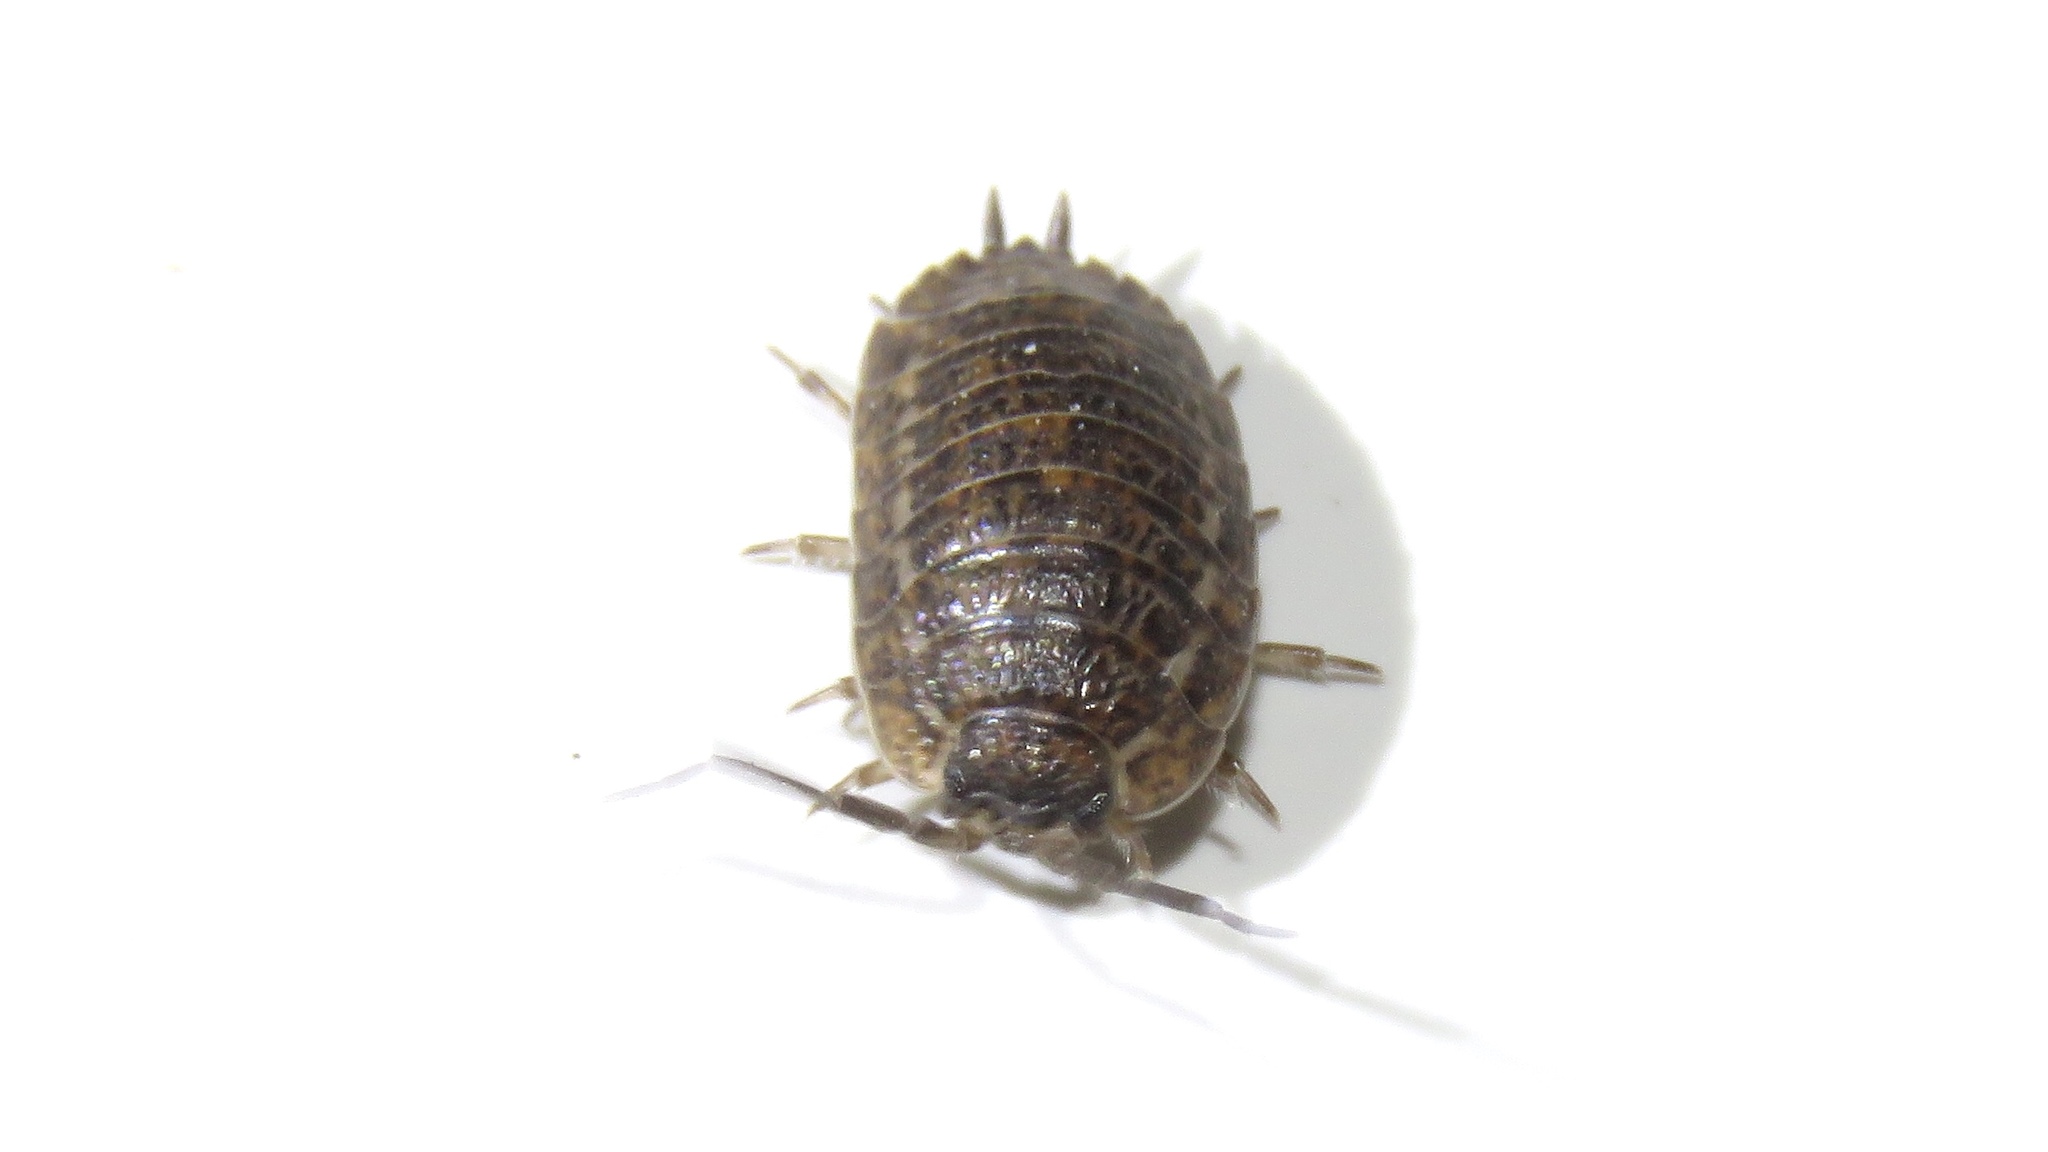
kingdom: Animalia
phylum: Arthropoda
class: Malacostraca
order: Isopoda
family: Trachelipodidae
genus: Trachelipus
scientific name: Trachelipus rathkii
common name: Isopod
